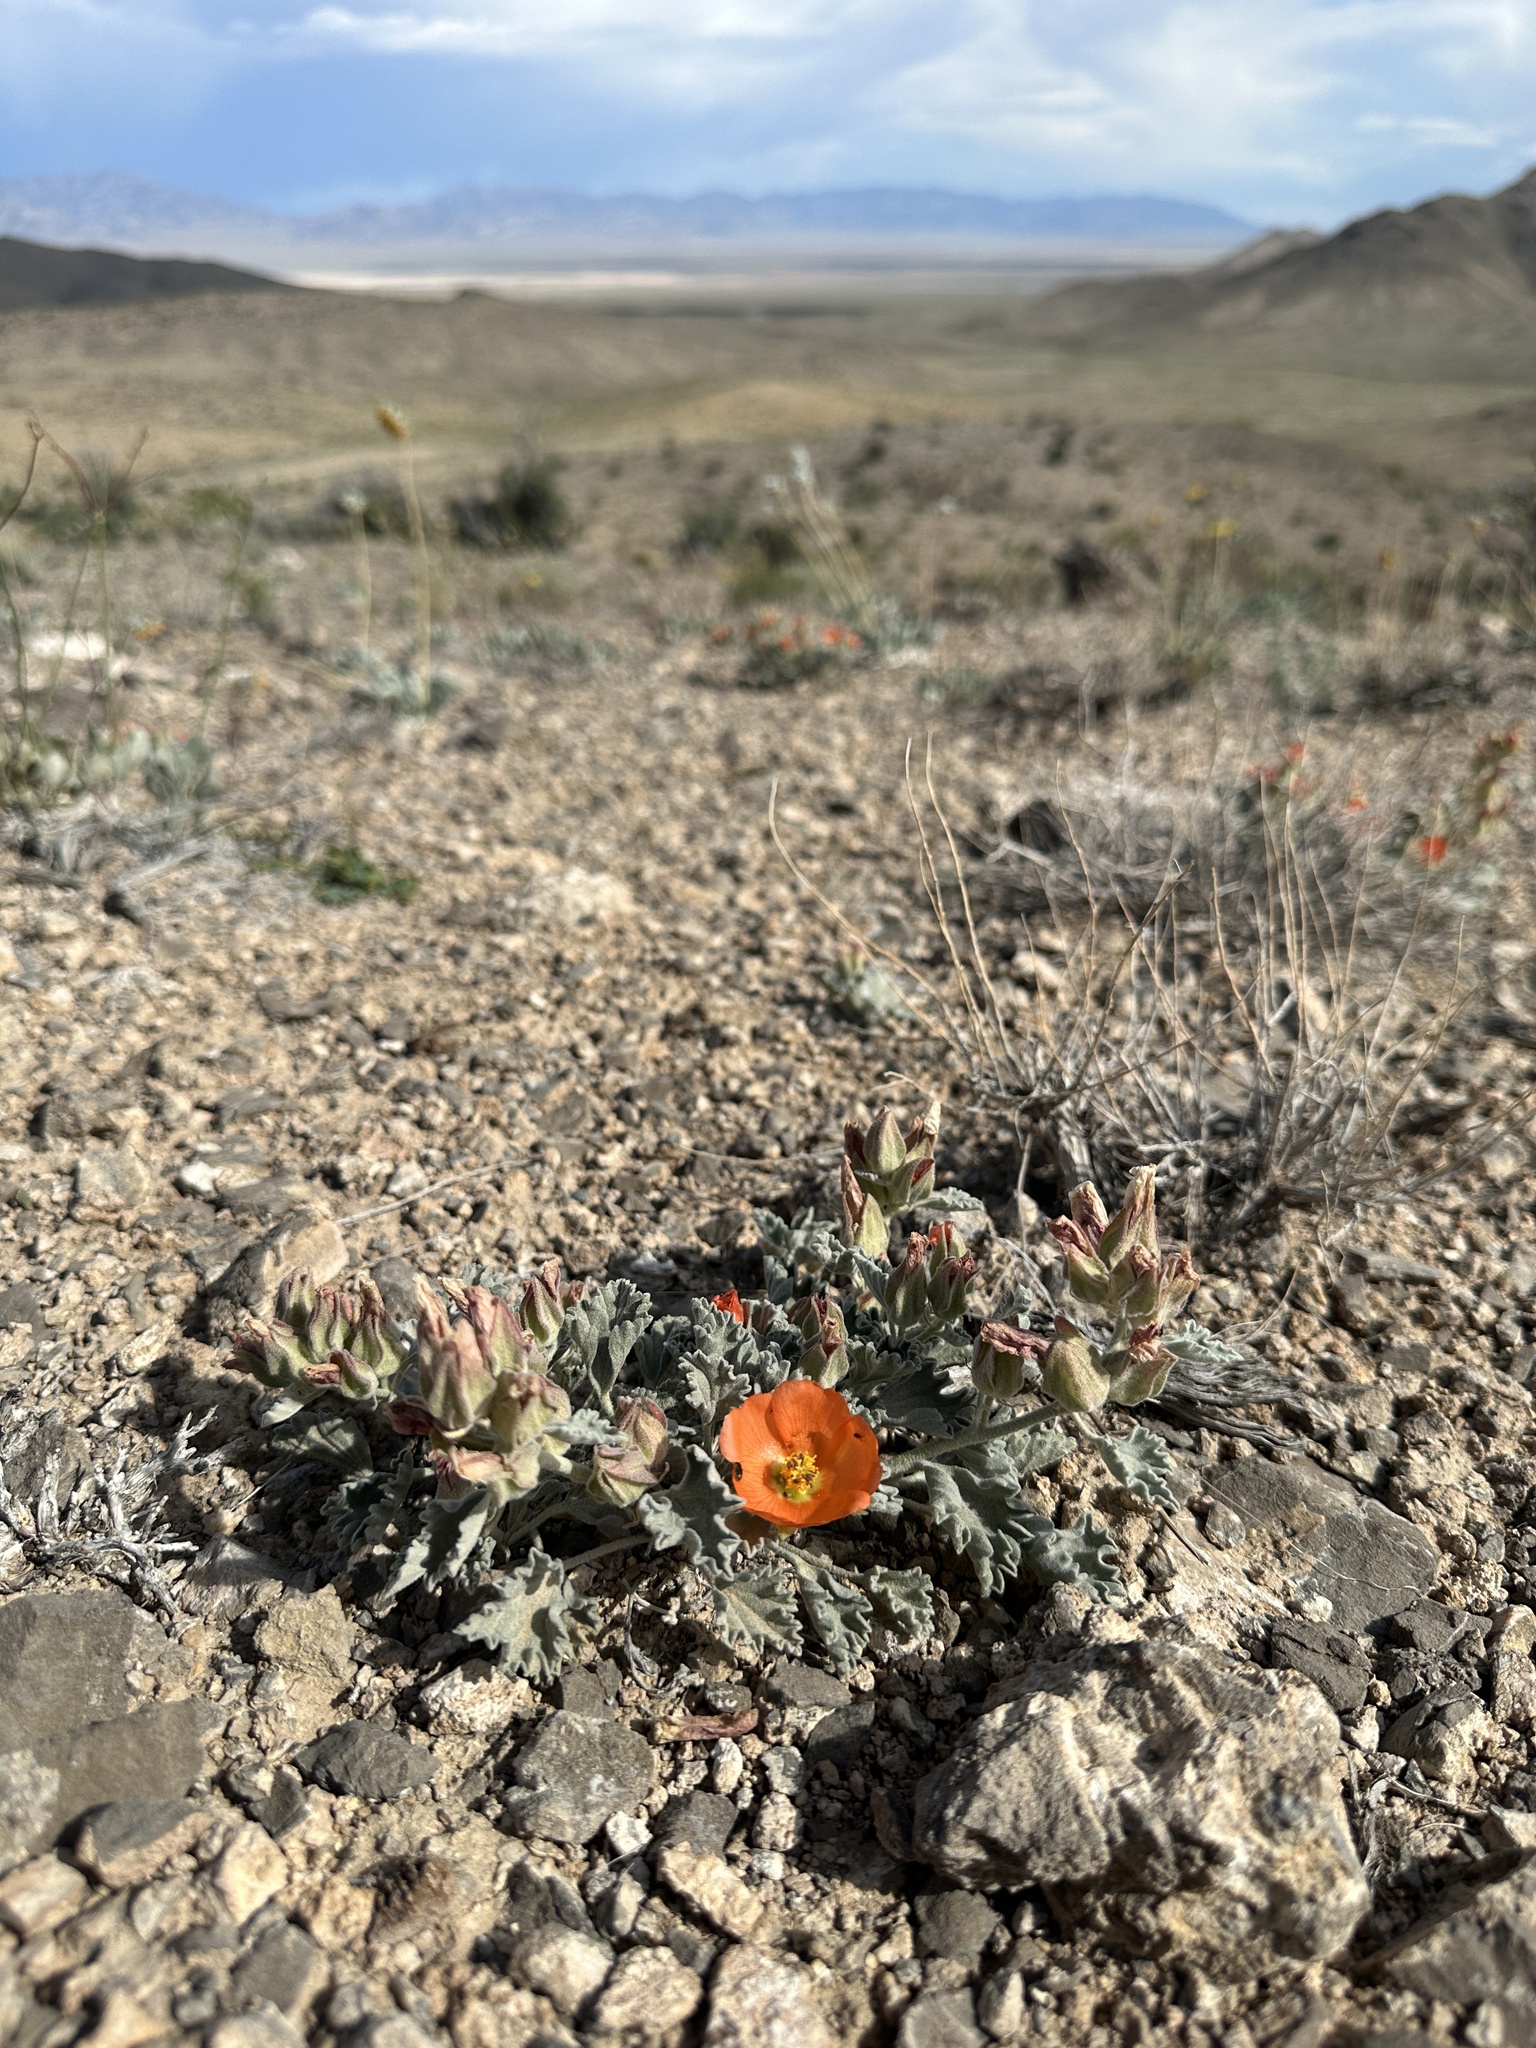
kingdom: Plantae
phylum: Tracheophyta
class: Magnoliopsida
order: Malvales
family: Malvaceae
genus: Sphaeralcea
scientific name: Sphaeralcea caespitosa
